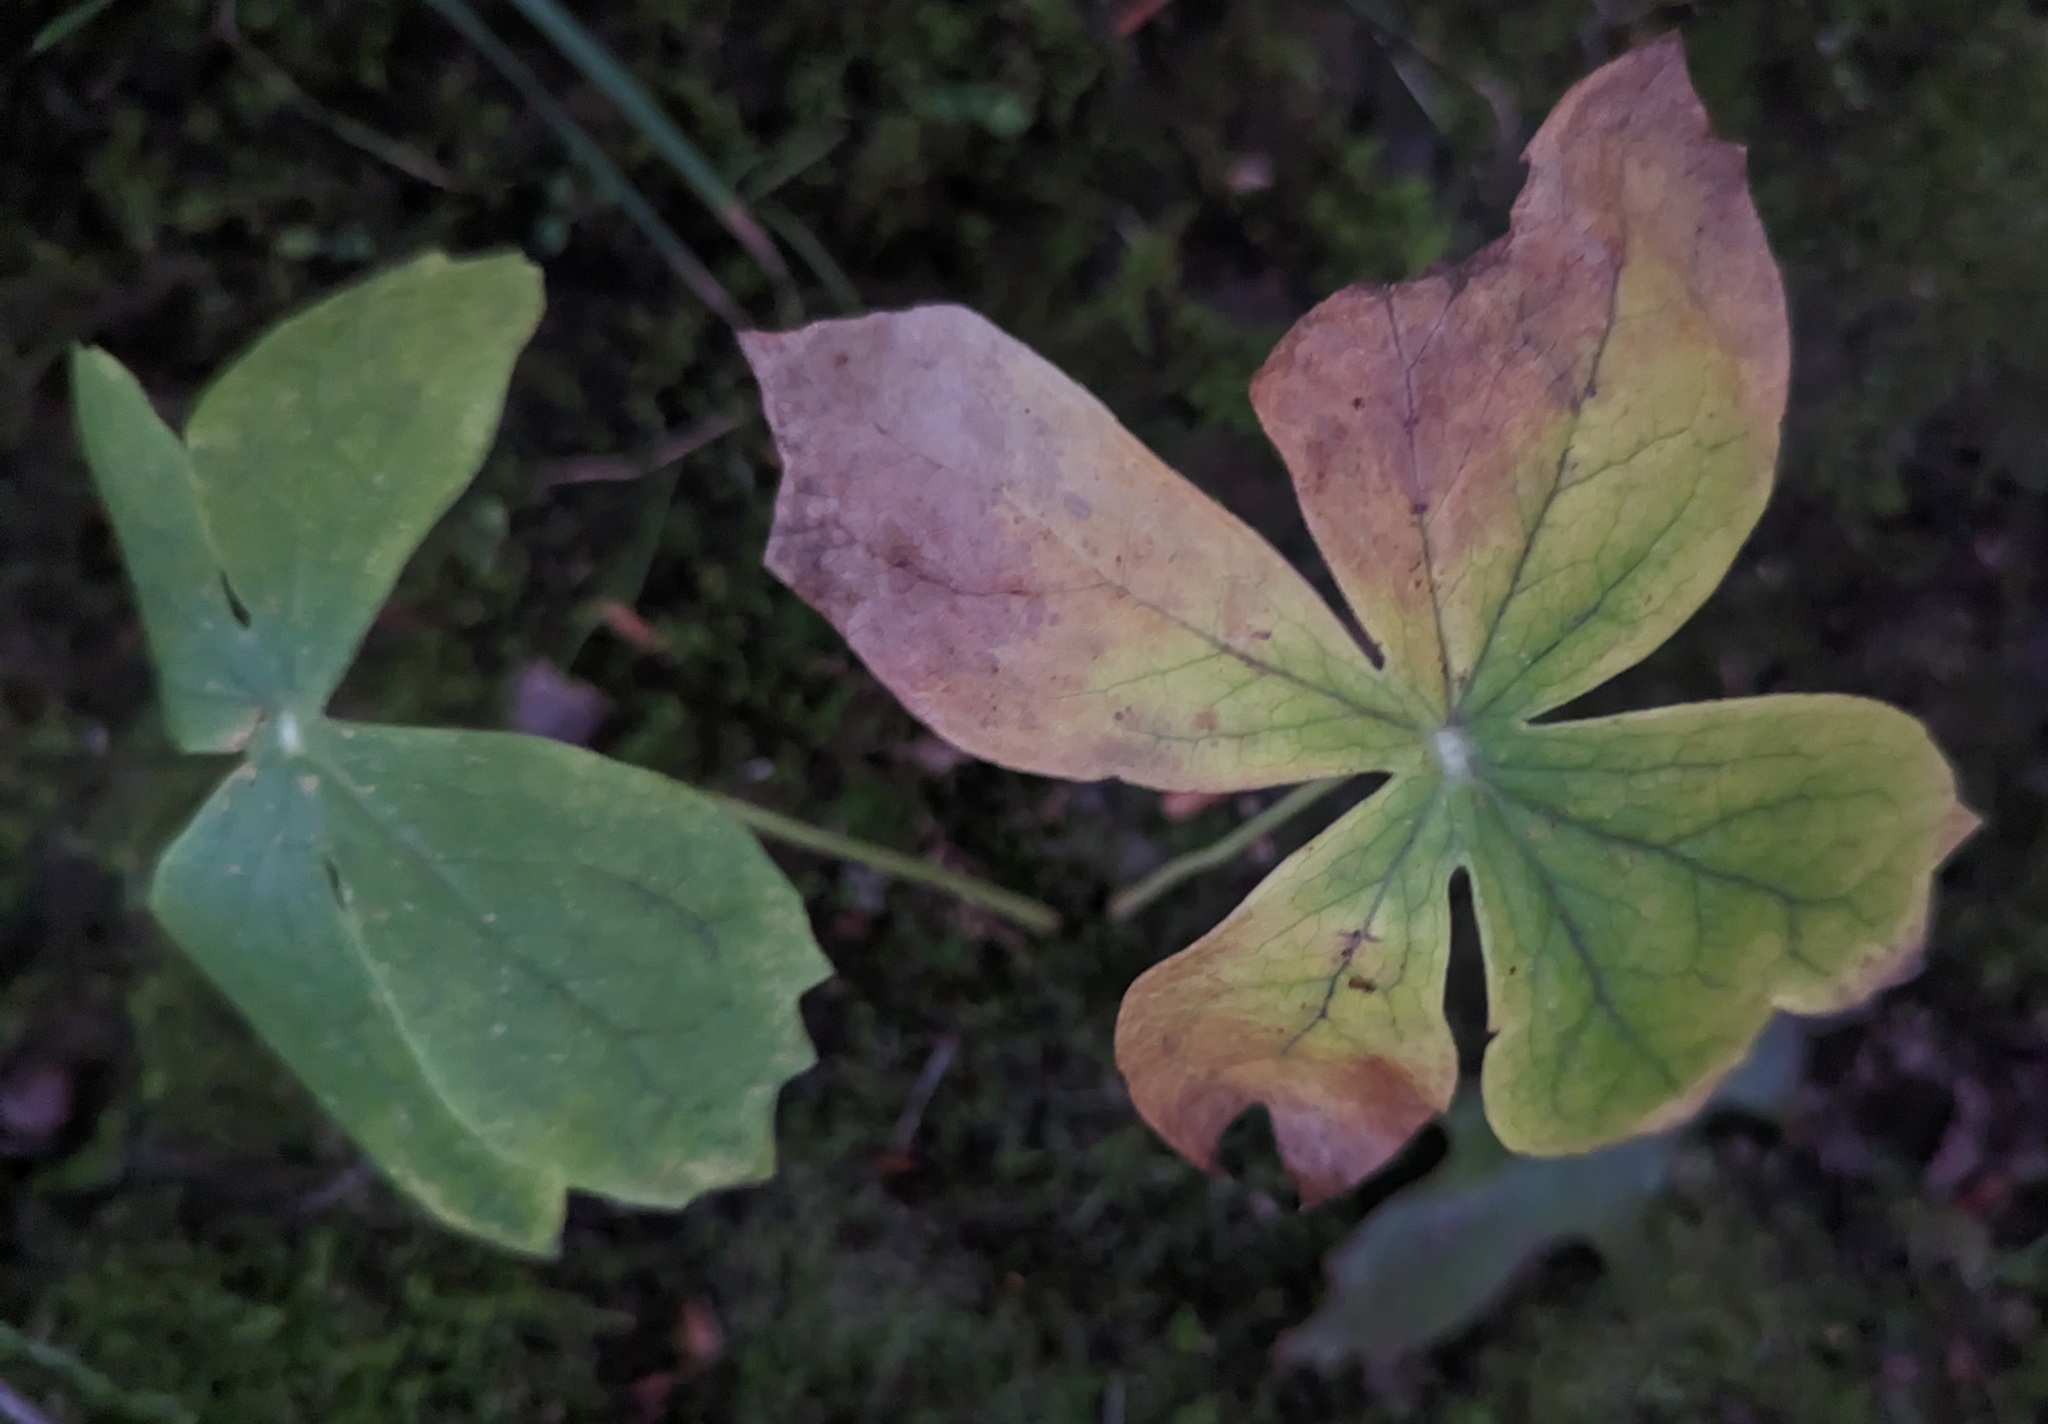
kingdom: Plantae
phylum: Tracheophyta
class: Magnoliopsida
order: Ranunculales
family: Berberidaceae
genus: Podophyllum
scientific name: Podophyllum peltatum
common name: Wild mandrake
